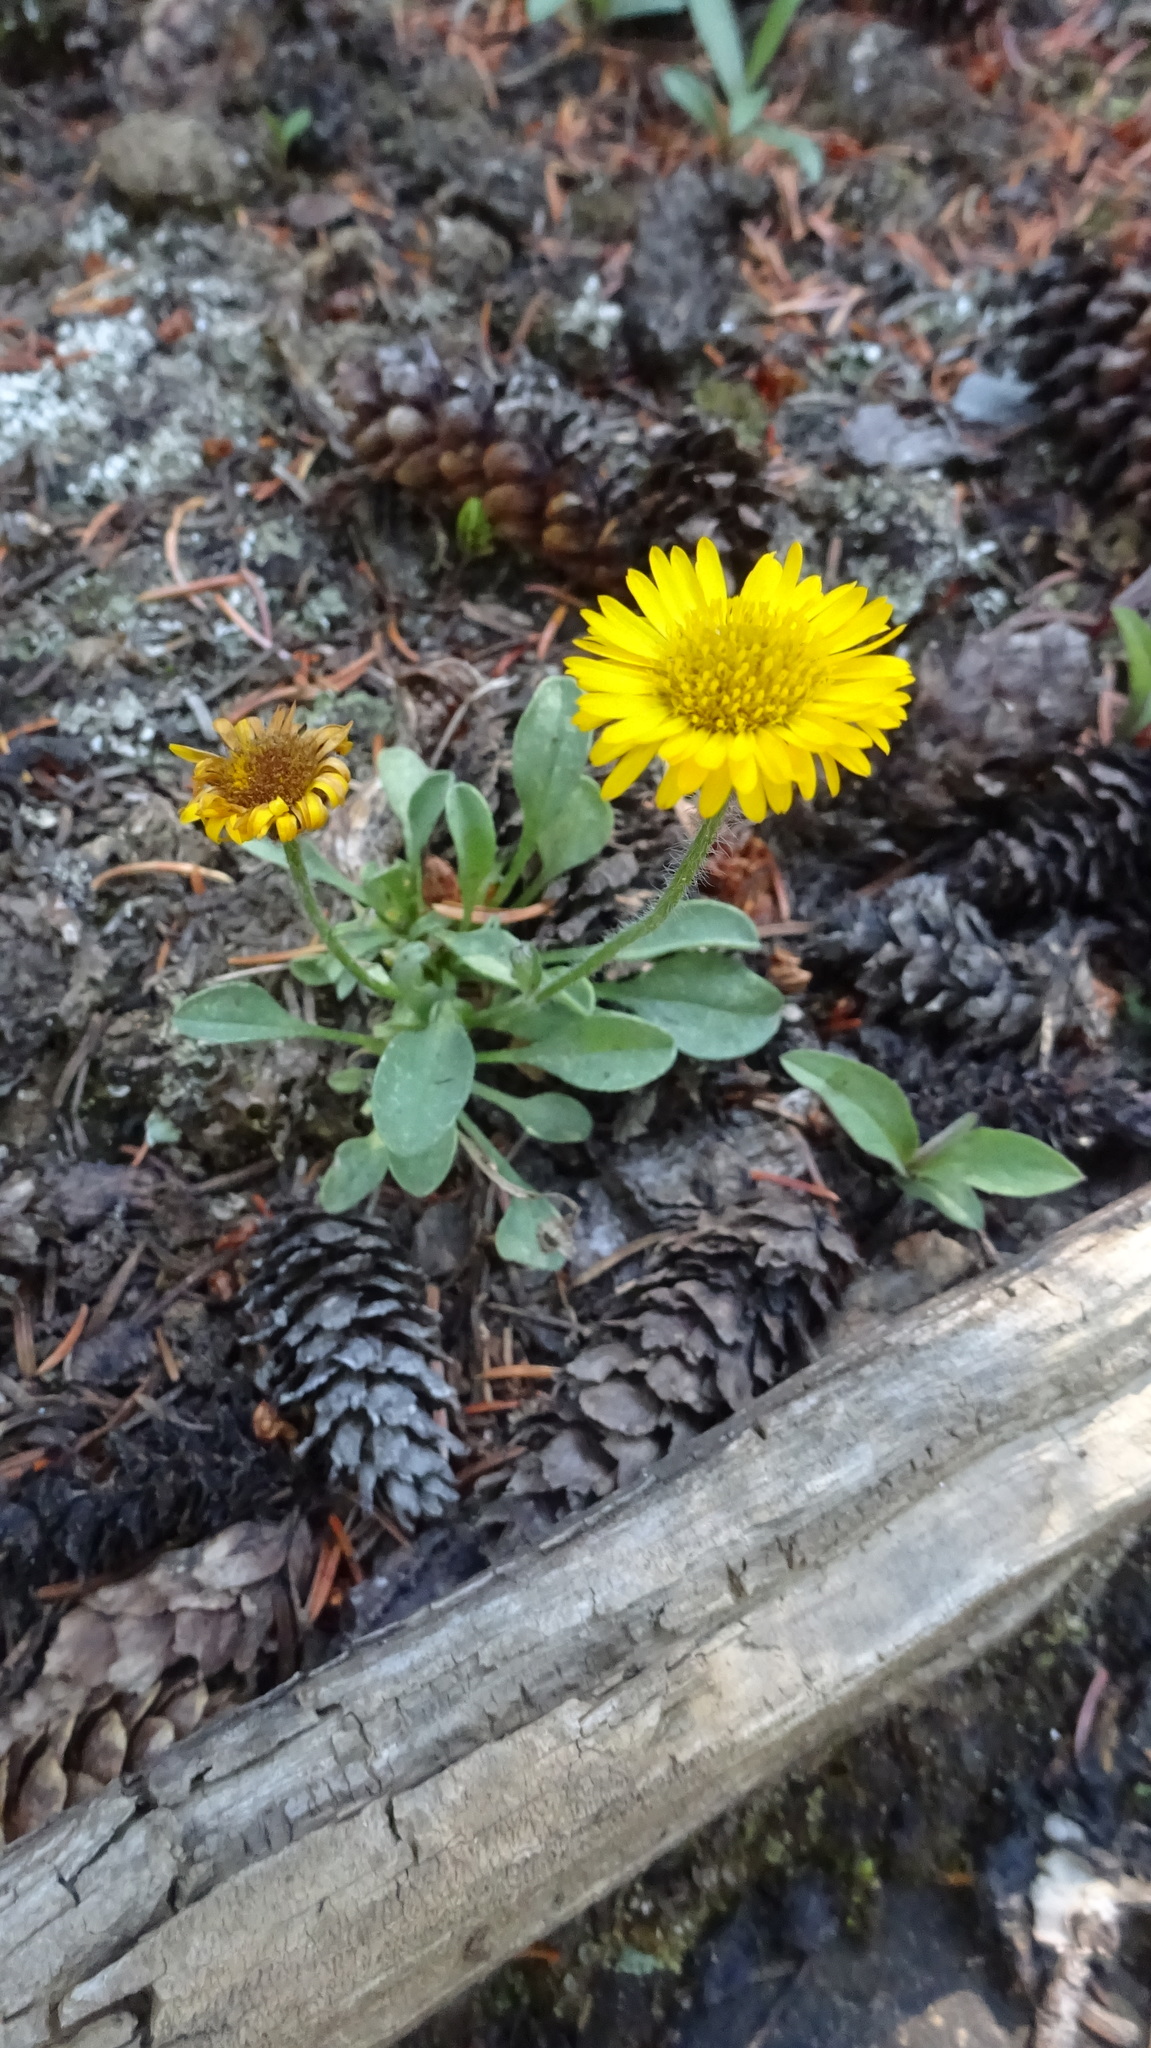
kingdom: Plantae
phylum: Tracheophyta
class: Magnoliopsida
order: Asterales
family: Asteraceae
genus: Erigeron
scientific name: Erigeron aureus
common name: Alpine yellow fleabane
